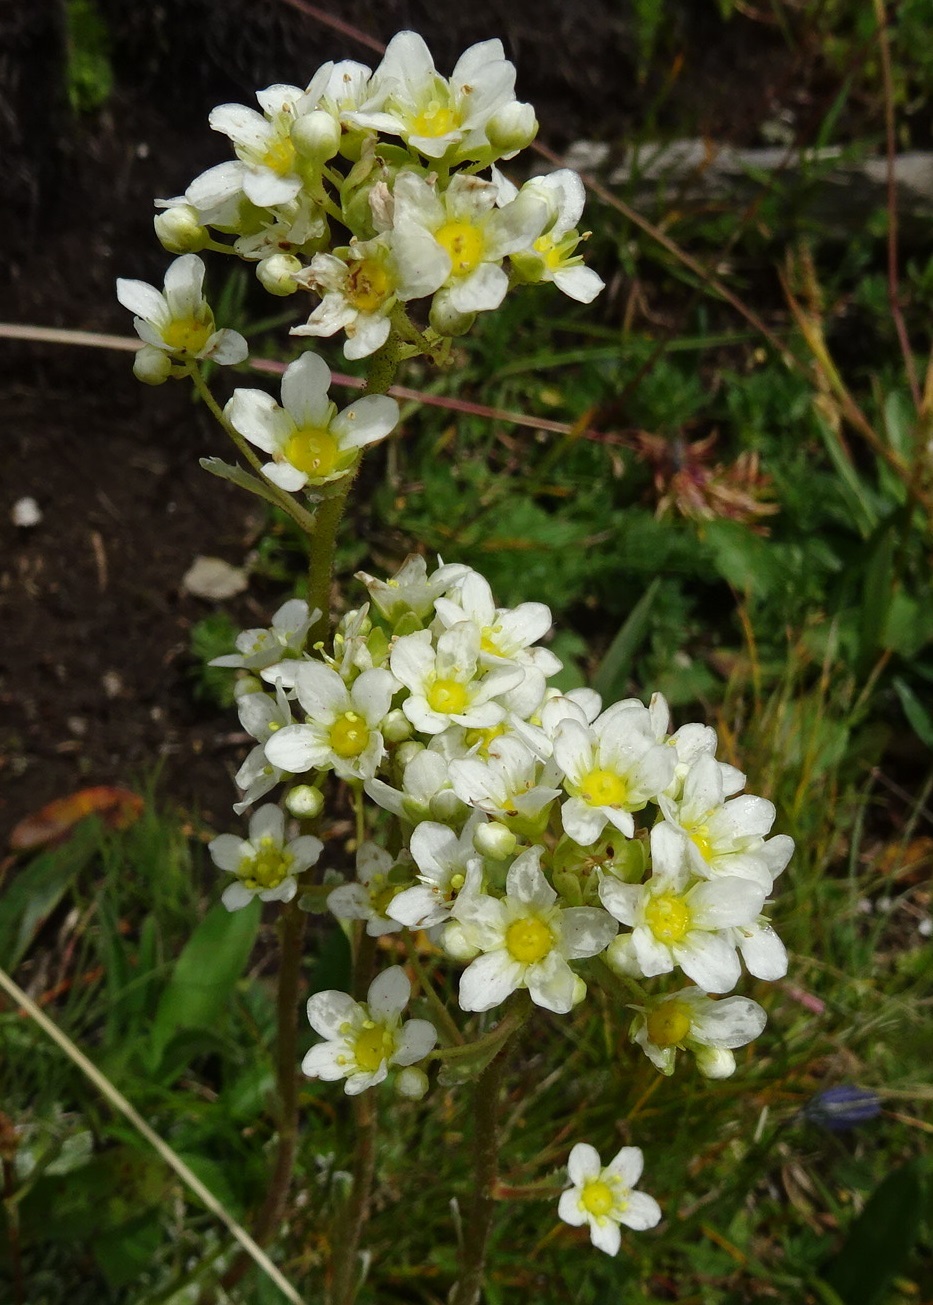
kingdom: Plantae
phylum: Tracheophyta
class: Magnoliopsida
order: Saxifragales
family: Saxifragaceae
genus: Saxifraga
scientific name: Saxifraga paniculata
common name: Livelong saxifrage
